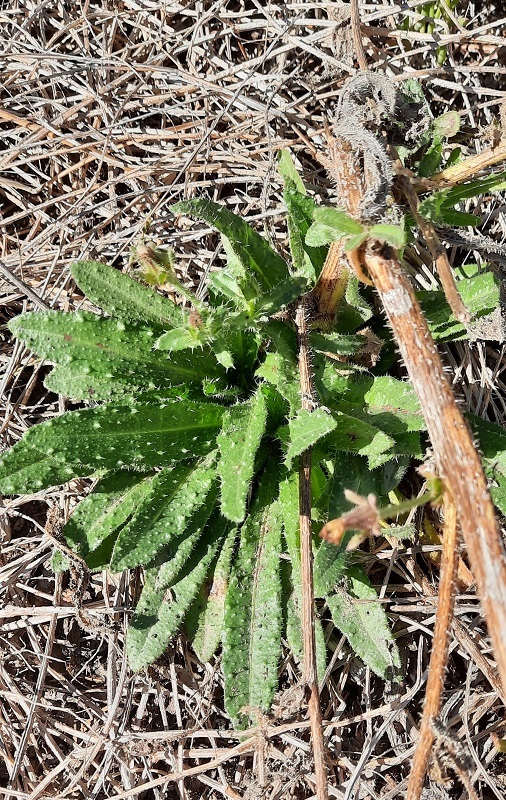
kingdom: Plantae
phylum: Tracheophyta
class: Magnoliopsida
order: Asterales
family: Asteraceae
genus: Helminthotheca
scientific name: Helminthotheca echioides
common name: Ox-tongue
